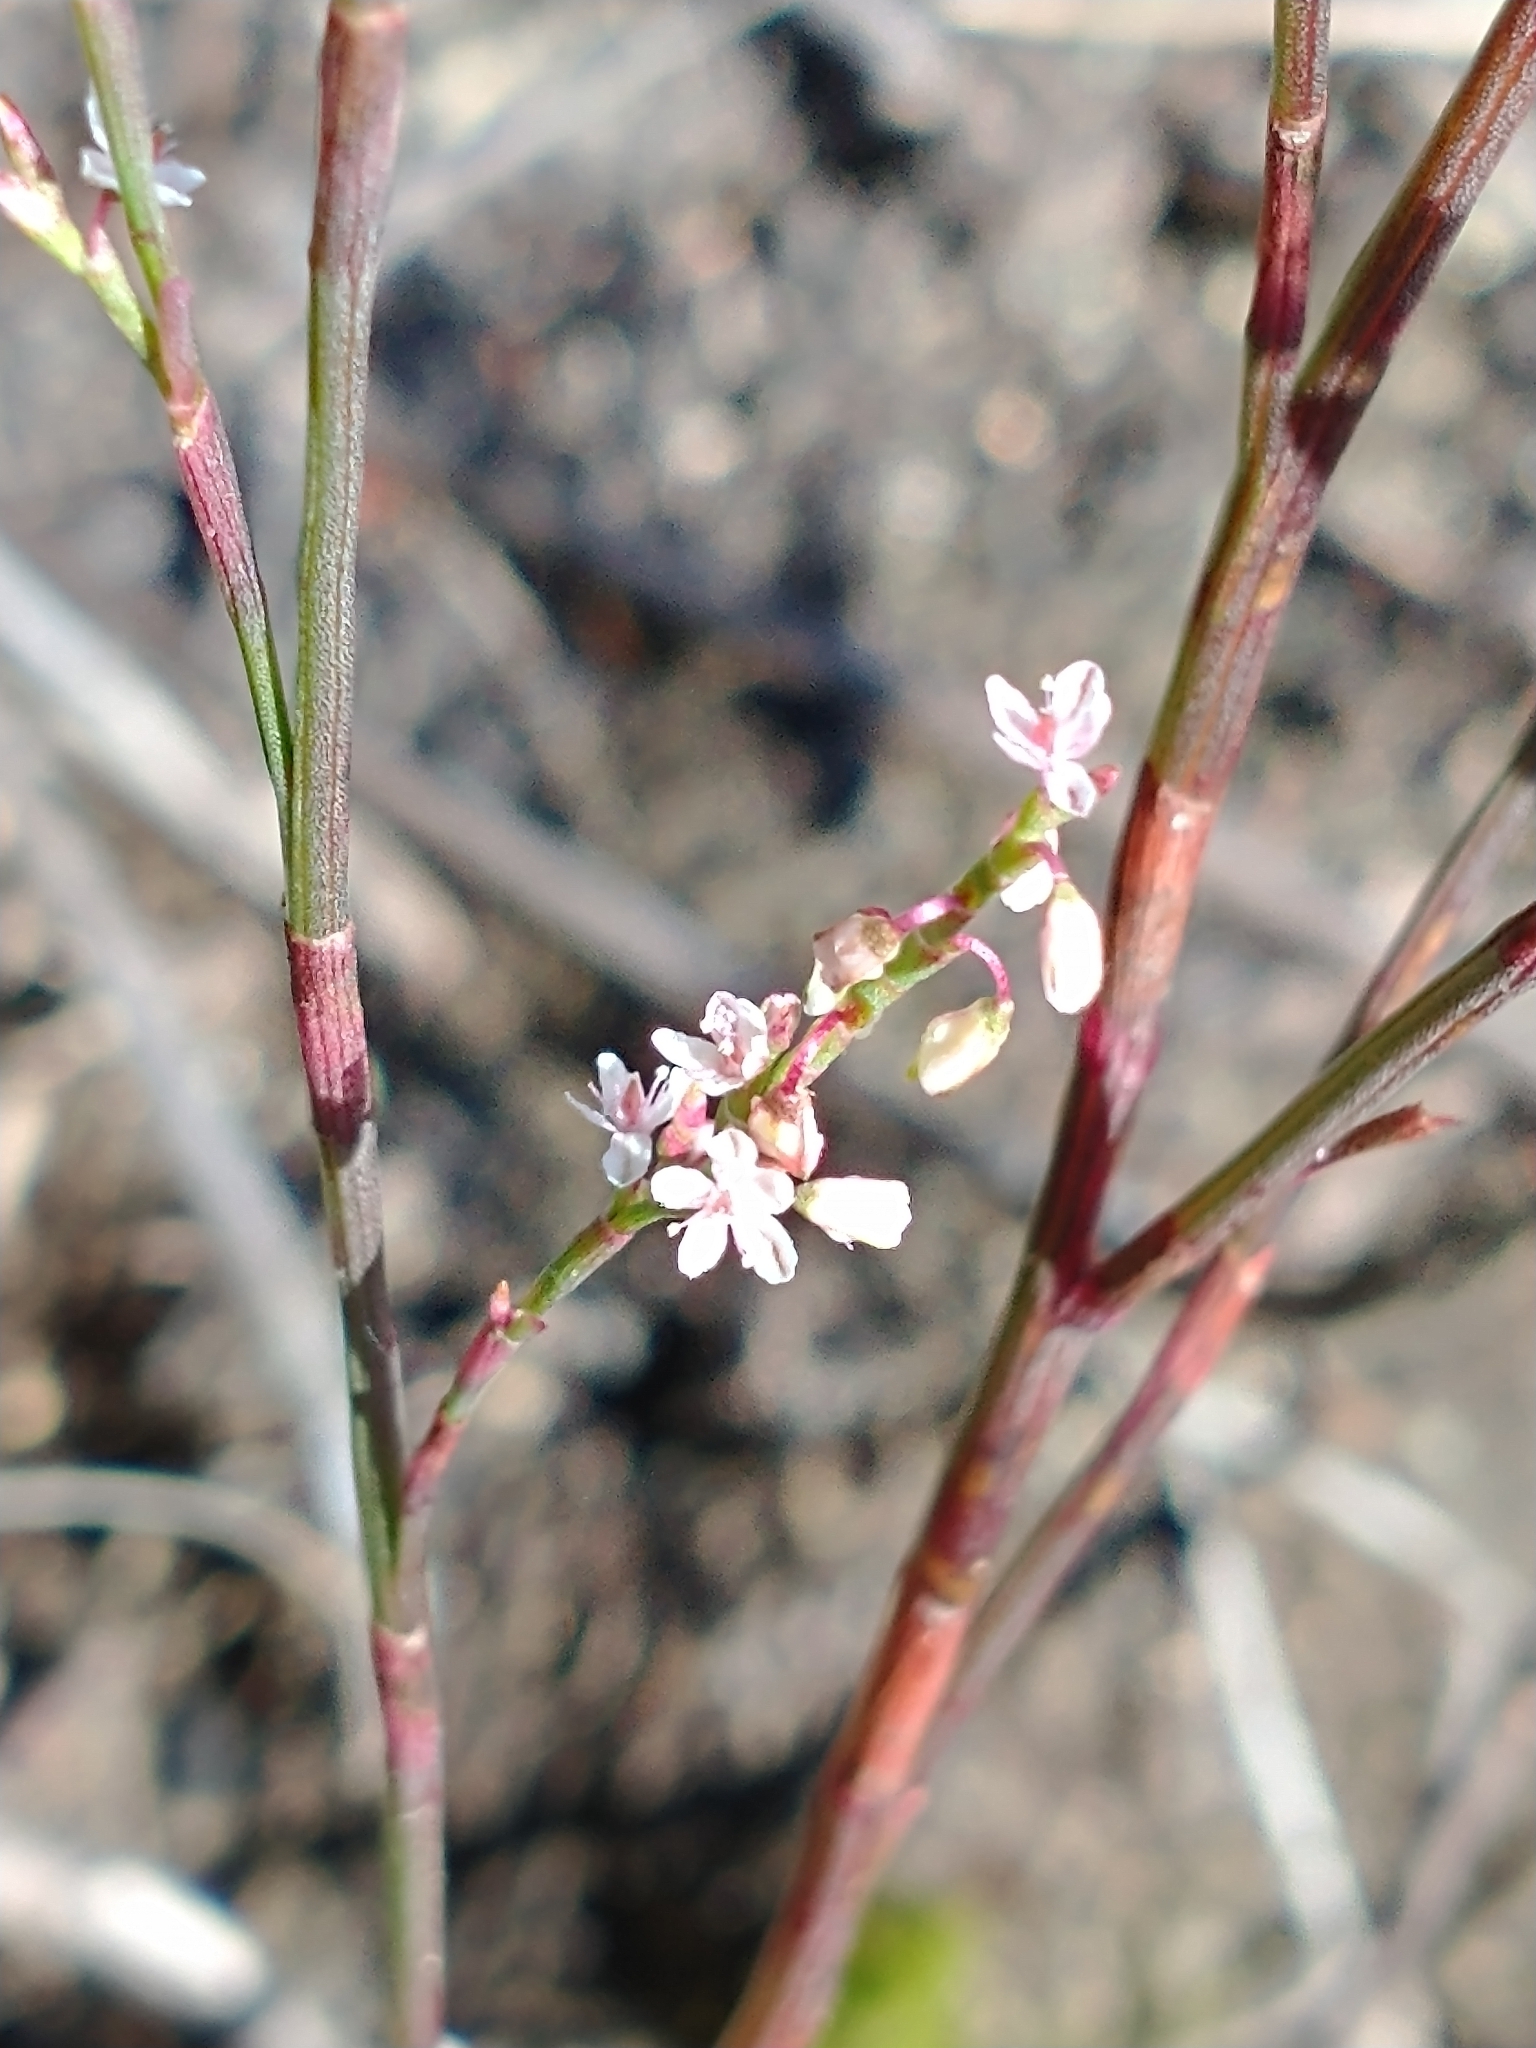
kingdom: Plantae
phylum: Tracheophyta
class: Magnoliopsida
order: Caryophyllales
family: Polygonaceae
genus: Polygonella
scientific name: Polygonella articulata
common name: Coastal jointweed
